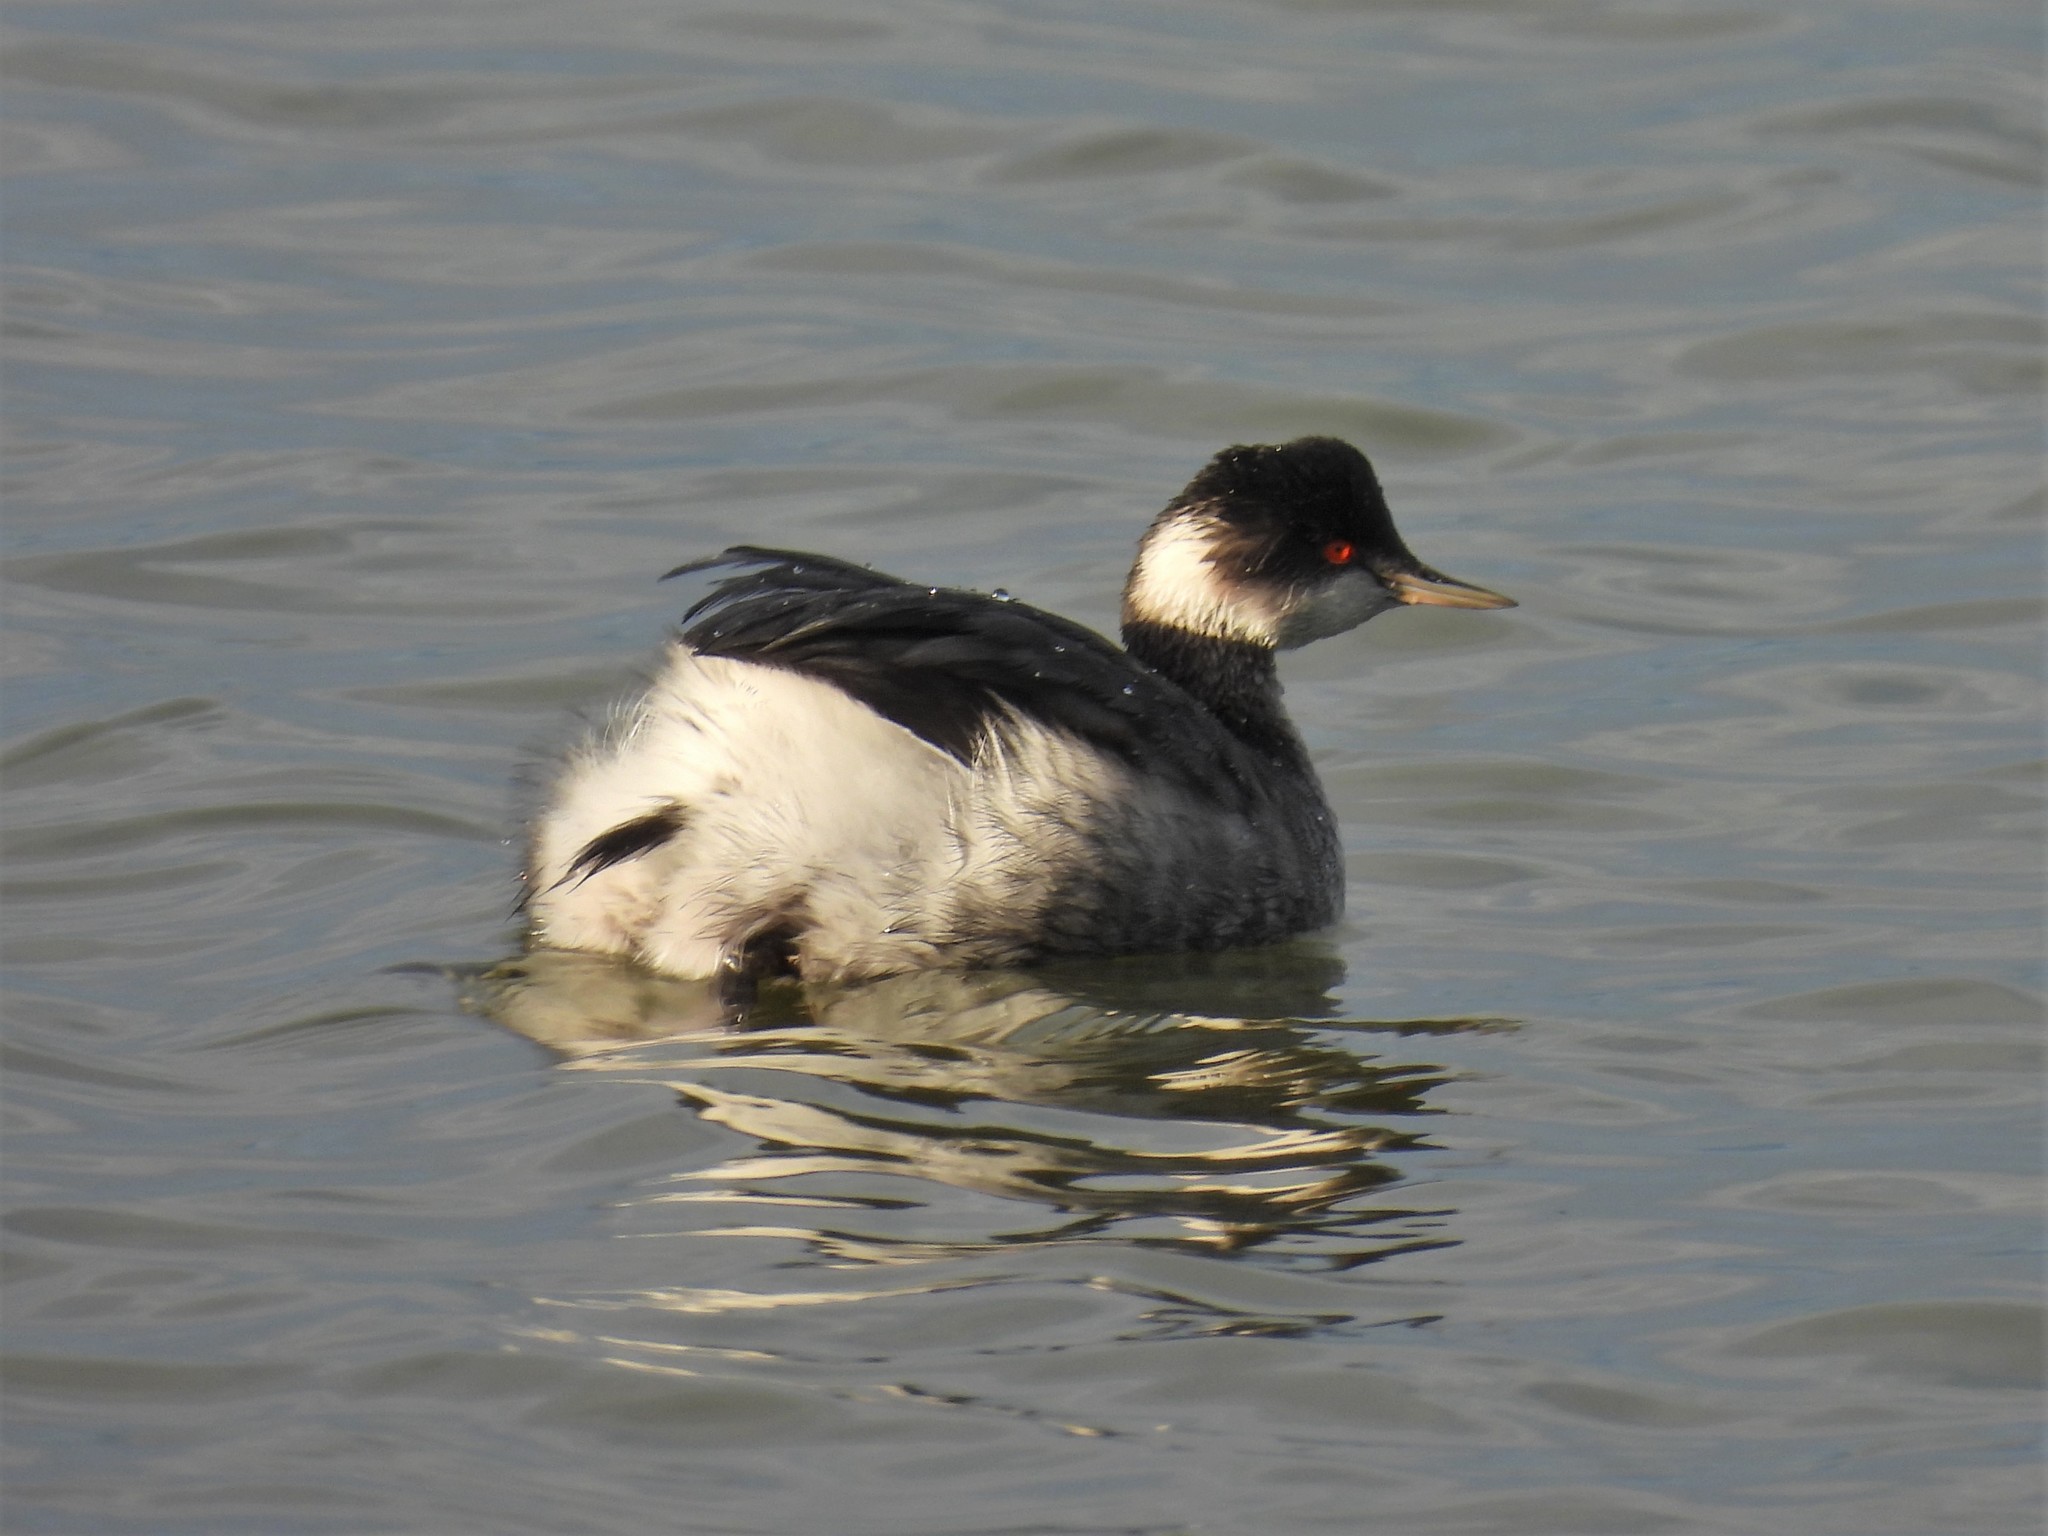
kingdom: Animalia
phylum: Chordata
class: Aves
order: Podicipediformes
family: Podicipedidae
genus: Podiceps
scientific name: Podiceps nigricollis
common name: Black-necked grebe
